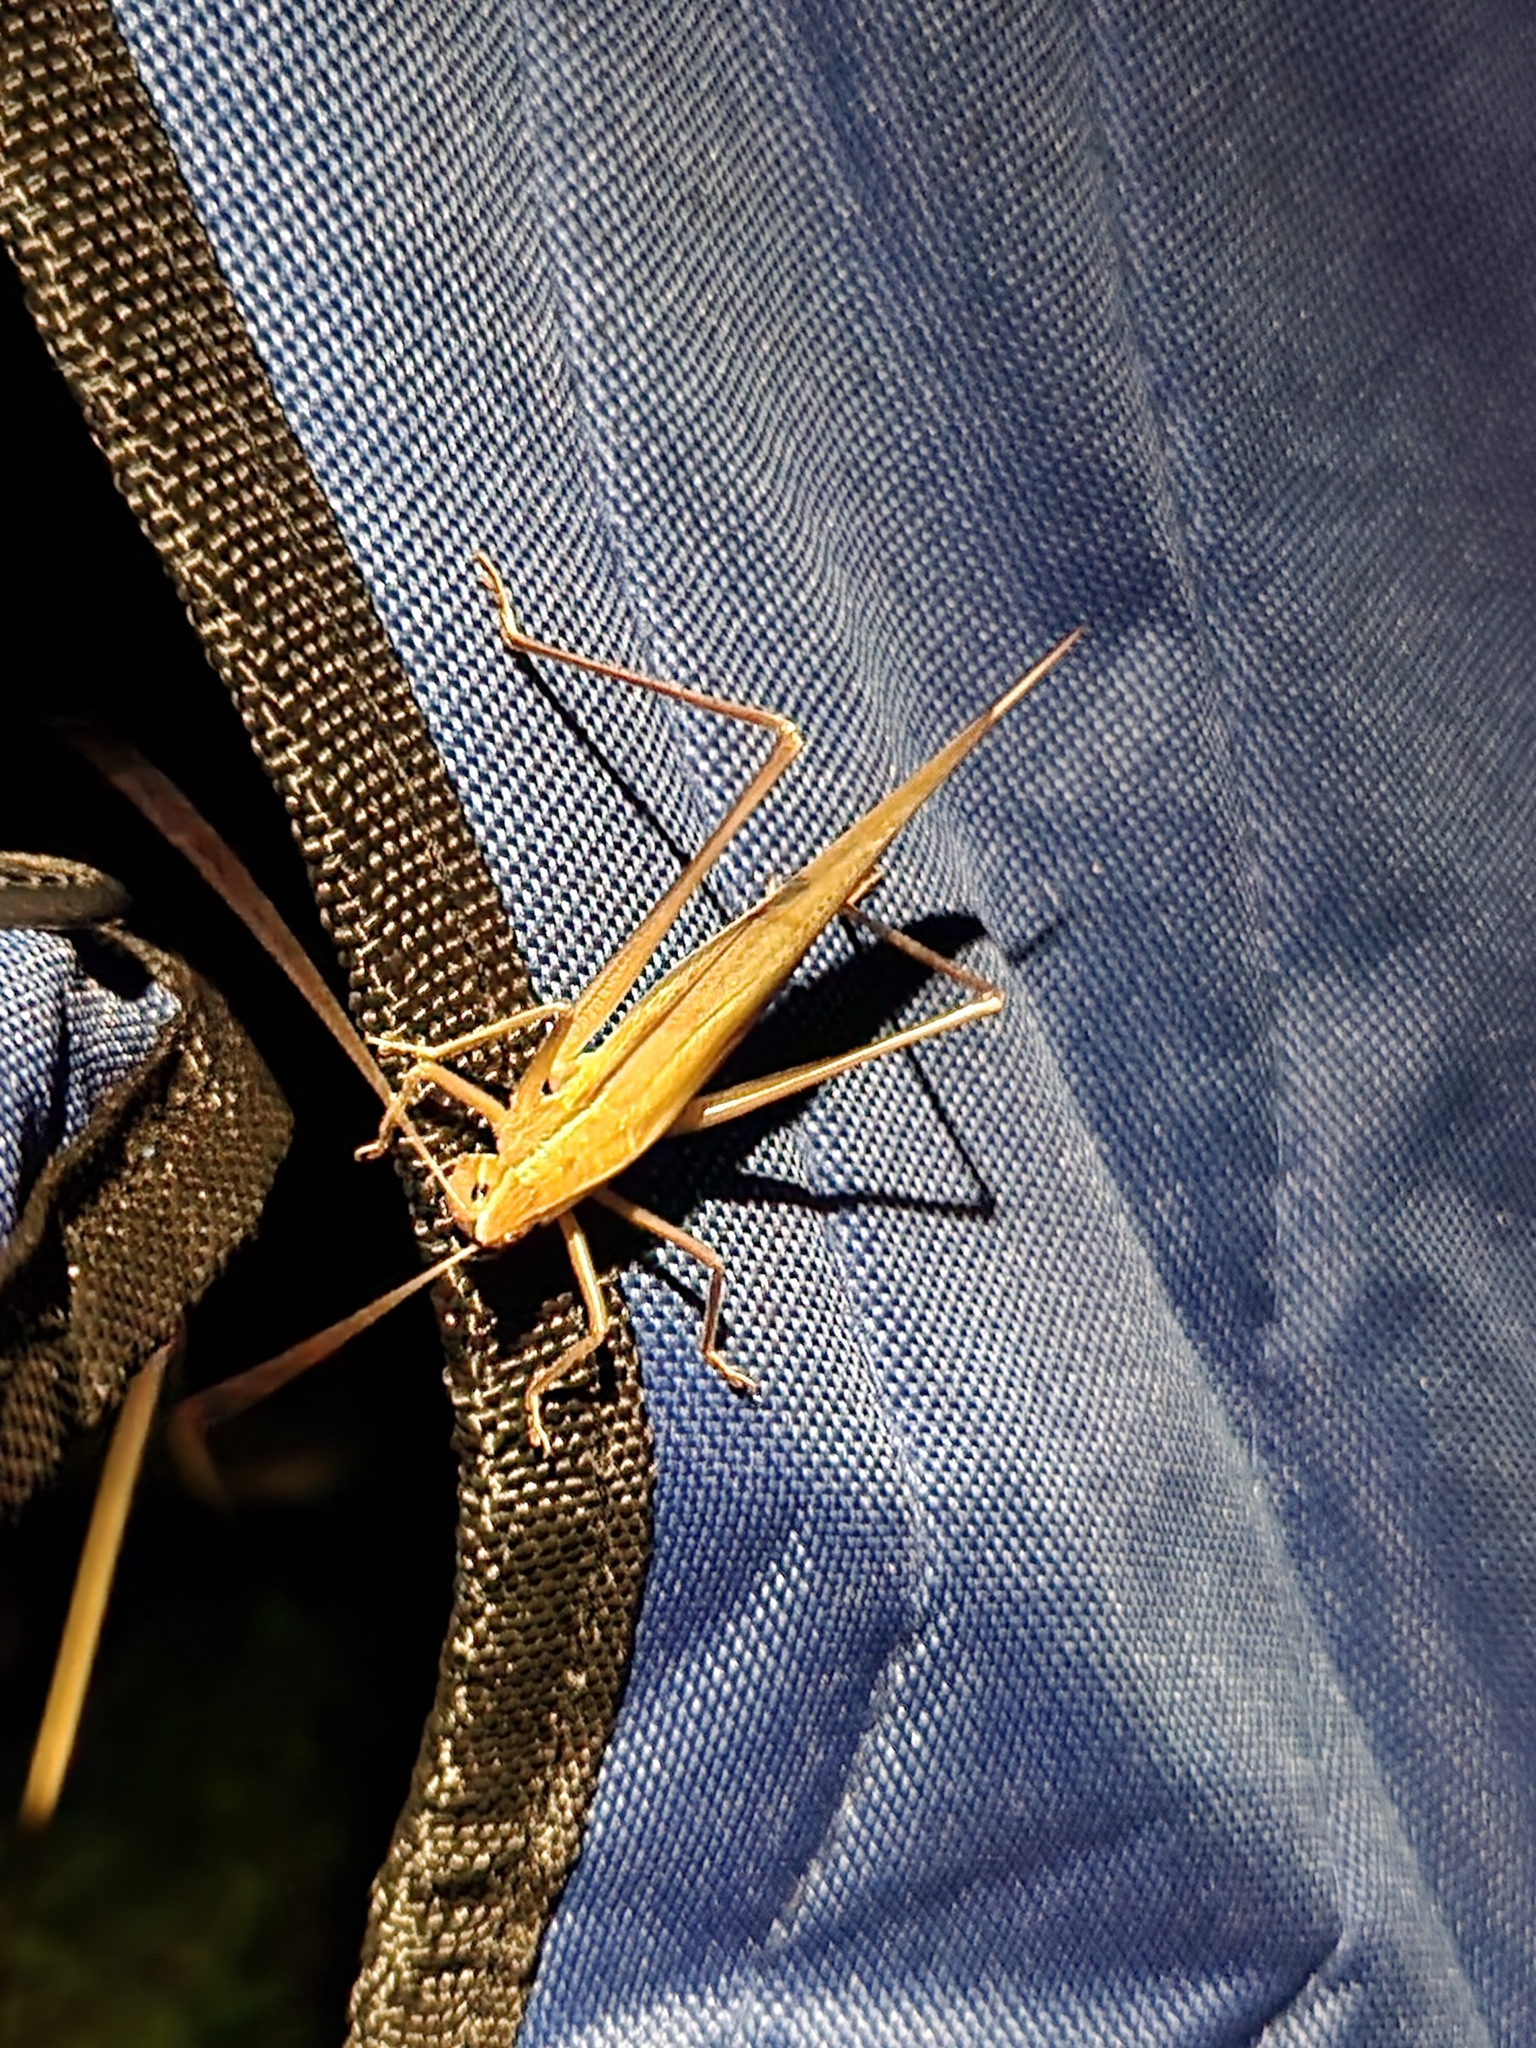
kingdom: Animalia
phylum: Arthropoda
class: Insecta
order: Orthoptera
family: Tettigoniidae
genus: Neoconocephalus
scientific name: Neoconocephalus retusus
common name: Round-tipped conehead
